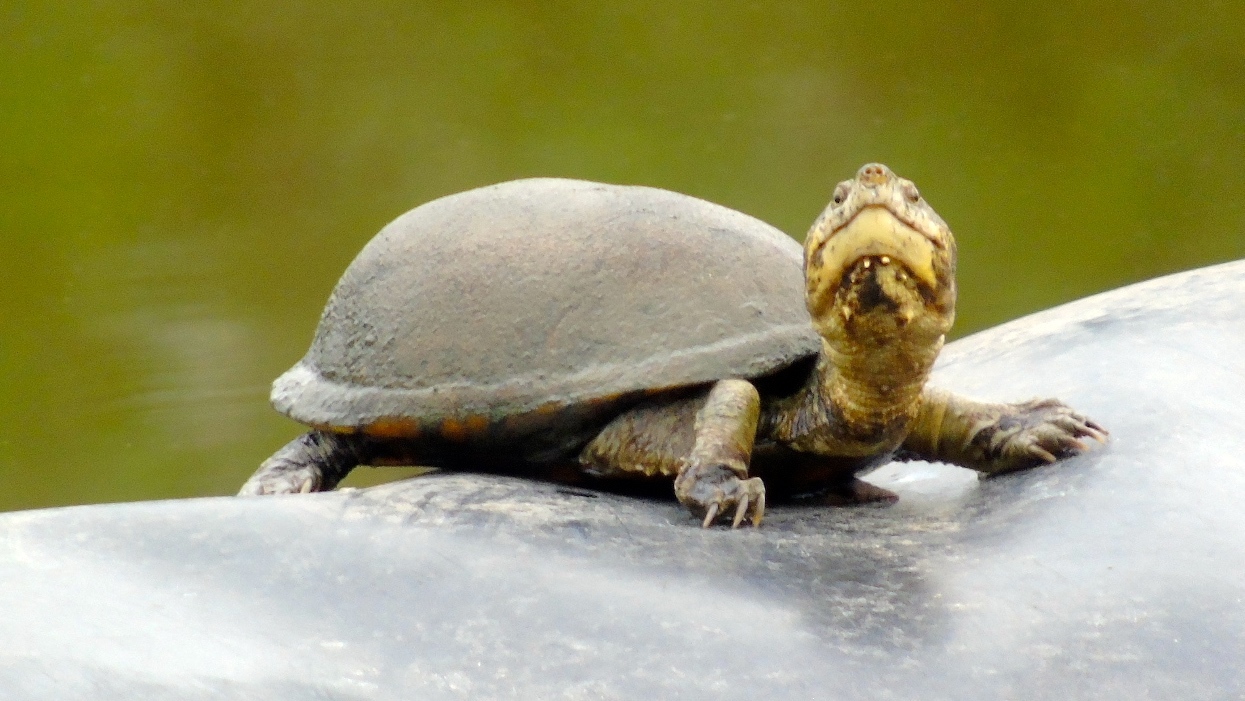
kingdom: Animalia
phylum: Chordata
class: Testudines
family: Kinosternidae
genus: Kinosternon
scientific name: Kinosternon integrum
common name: Mexican mud turtle
